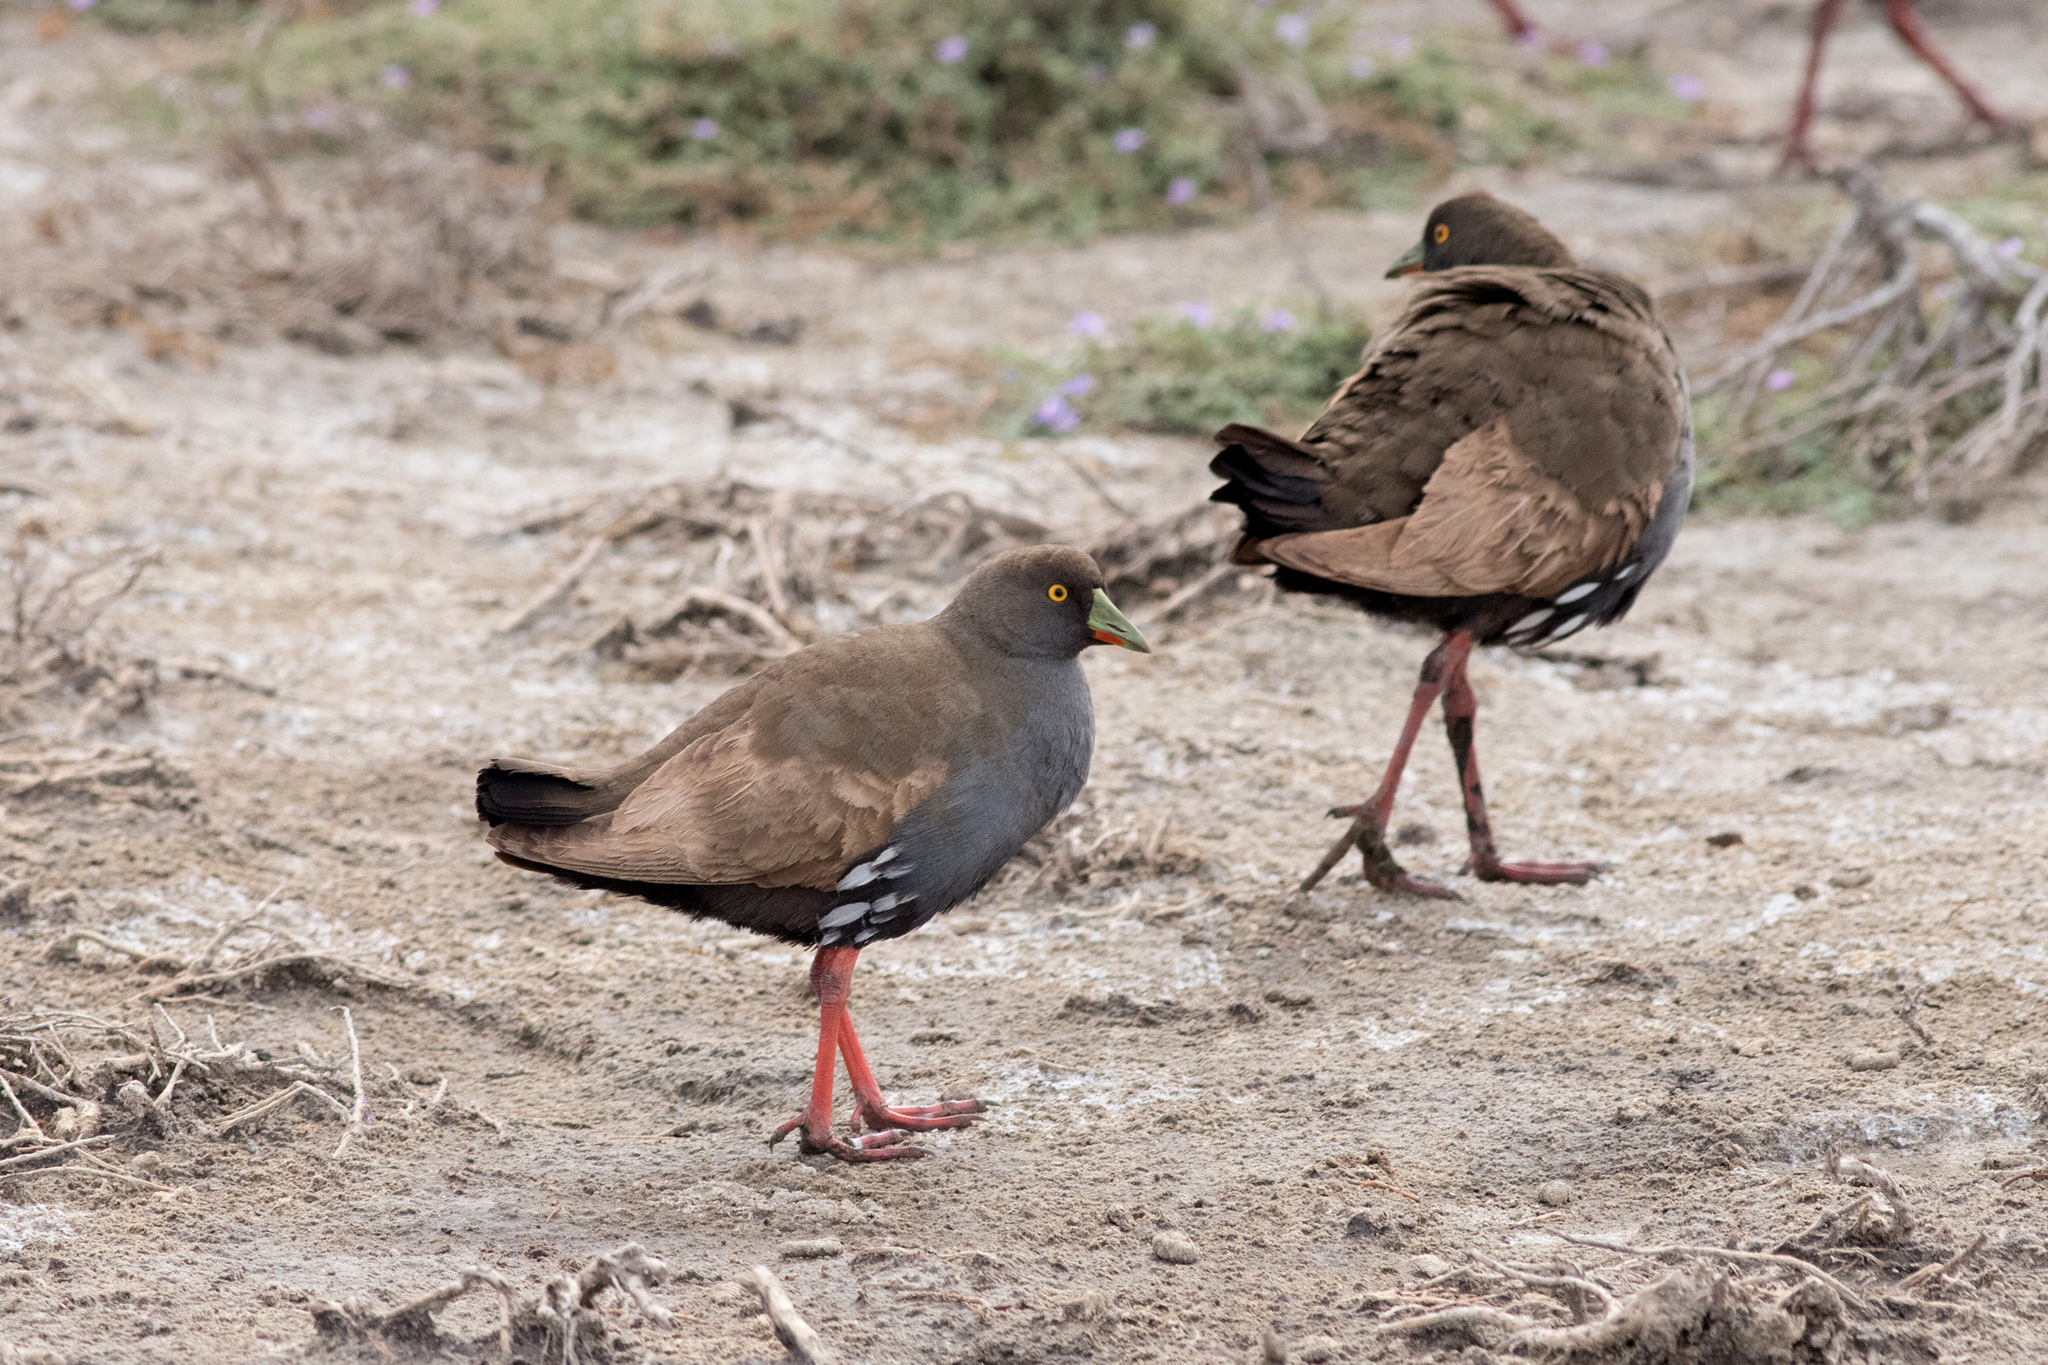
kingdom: Animalia
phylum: Chordata
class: Aves
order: Gruiformes
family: Rallidae
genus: Gallinula
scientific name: Gallinula ventralis
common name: Black-tailed nativehen
